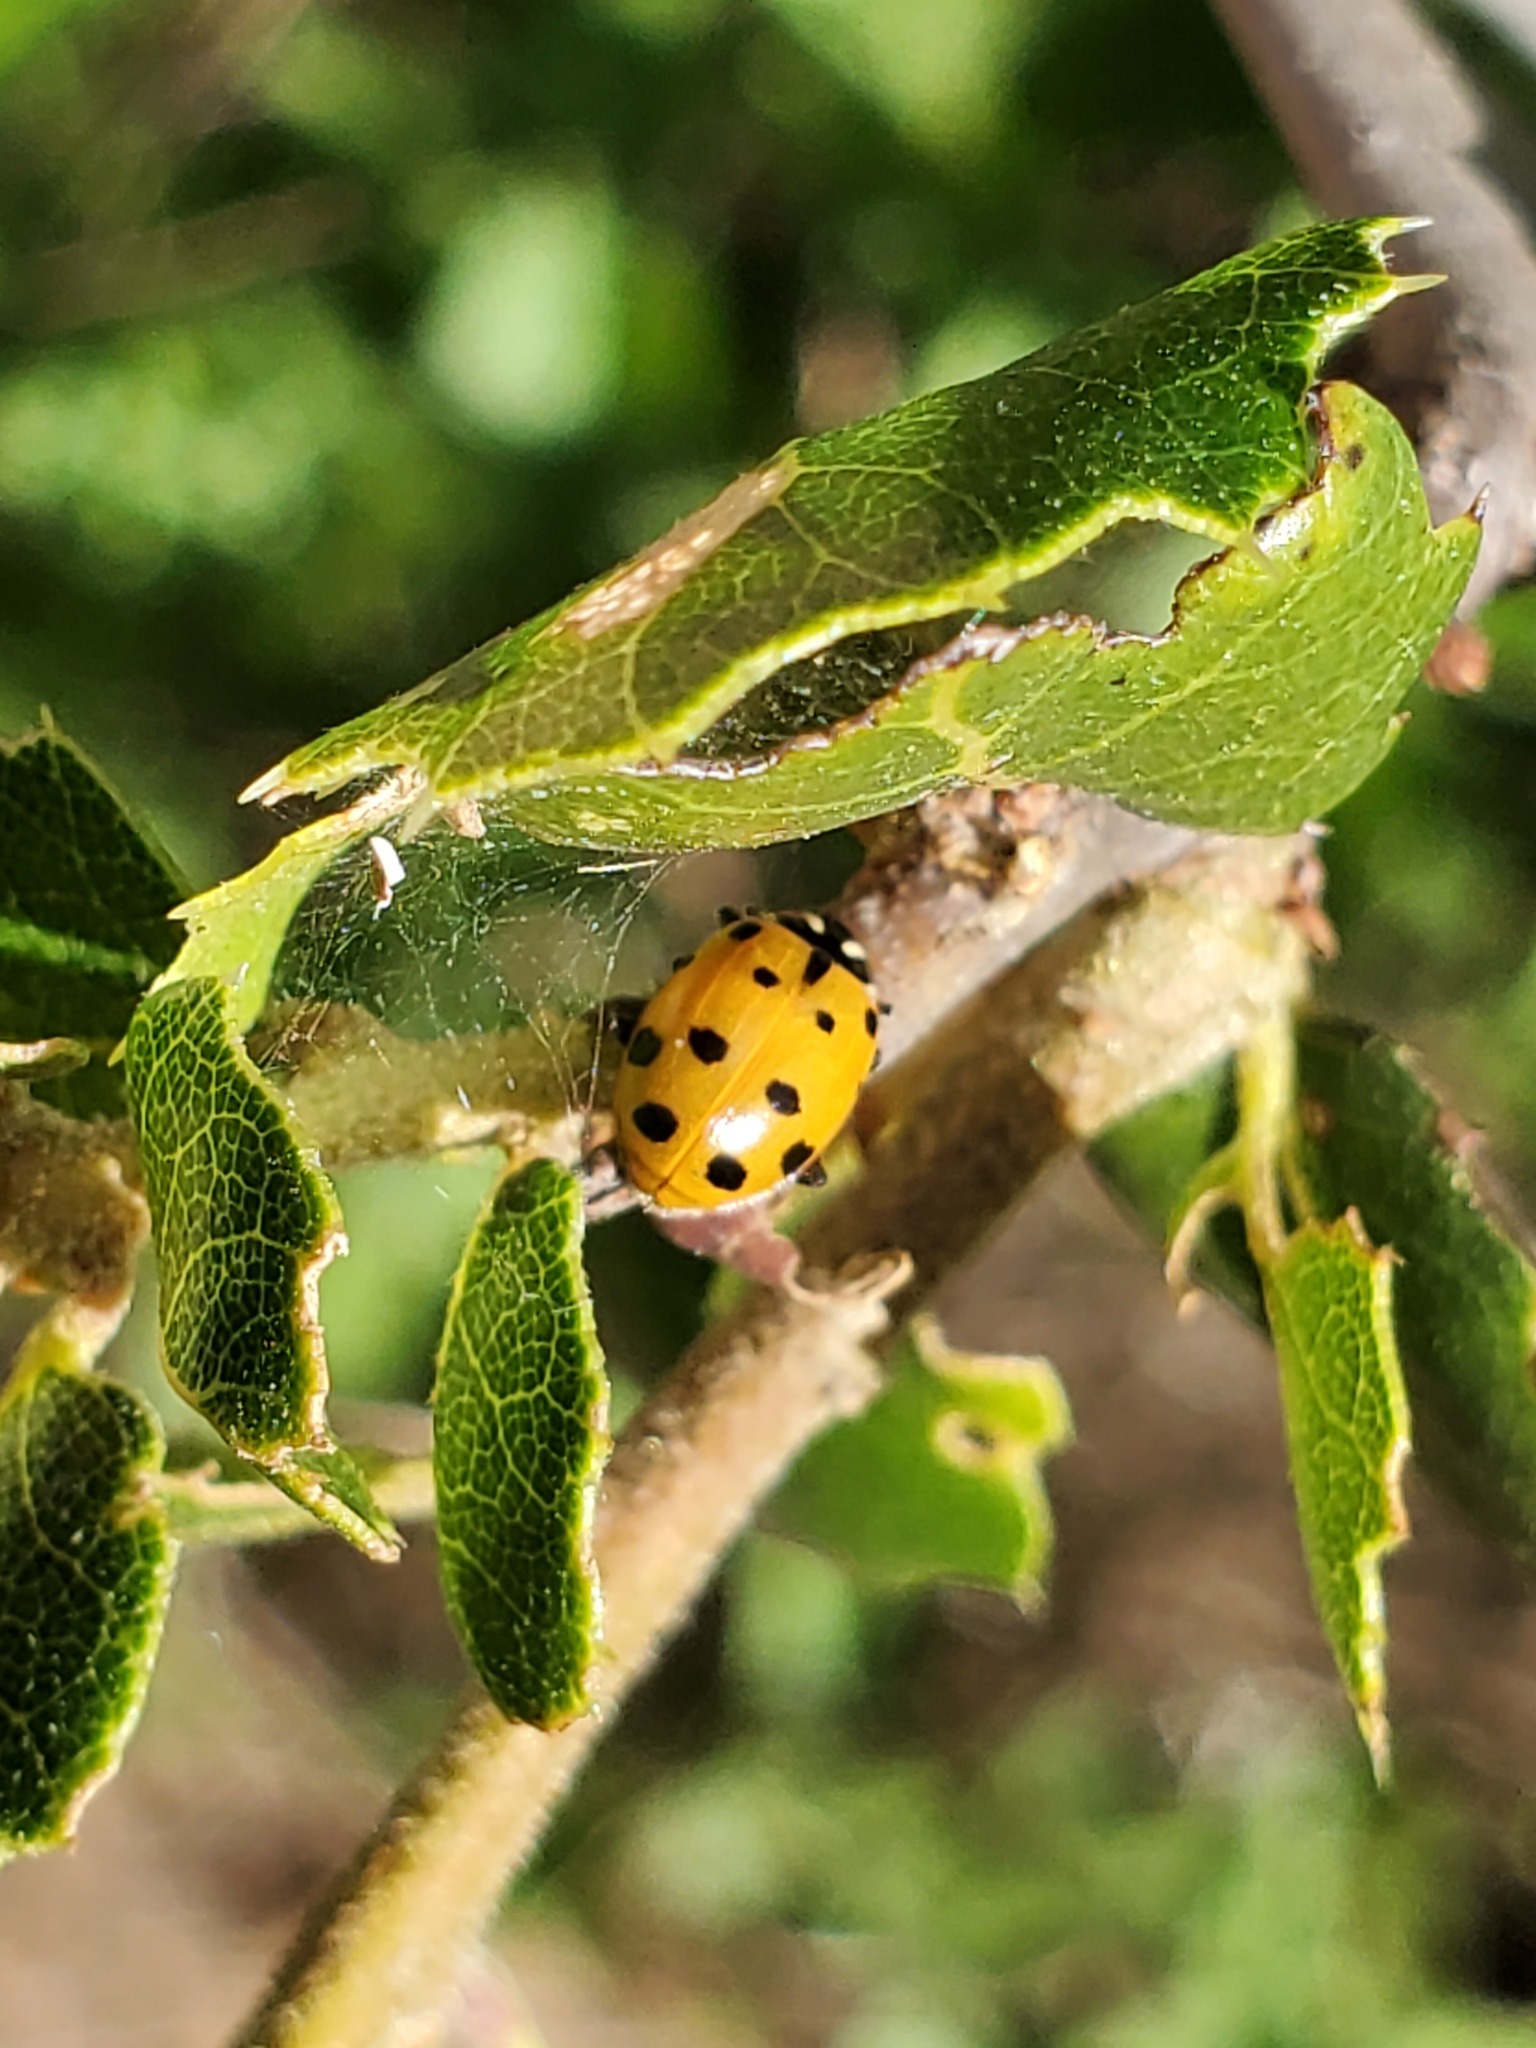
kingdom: Animalia
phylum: Arthropoda
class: Insecta
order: Coleoptera
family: Coccinellidae
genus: Hippodamia
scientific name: Hippodamia convergens
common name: Convergent lady beetle
